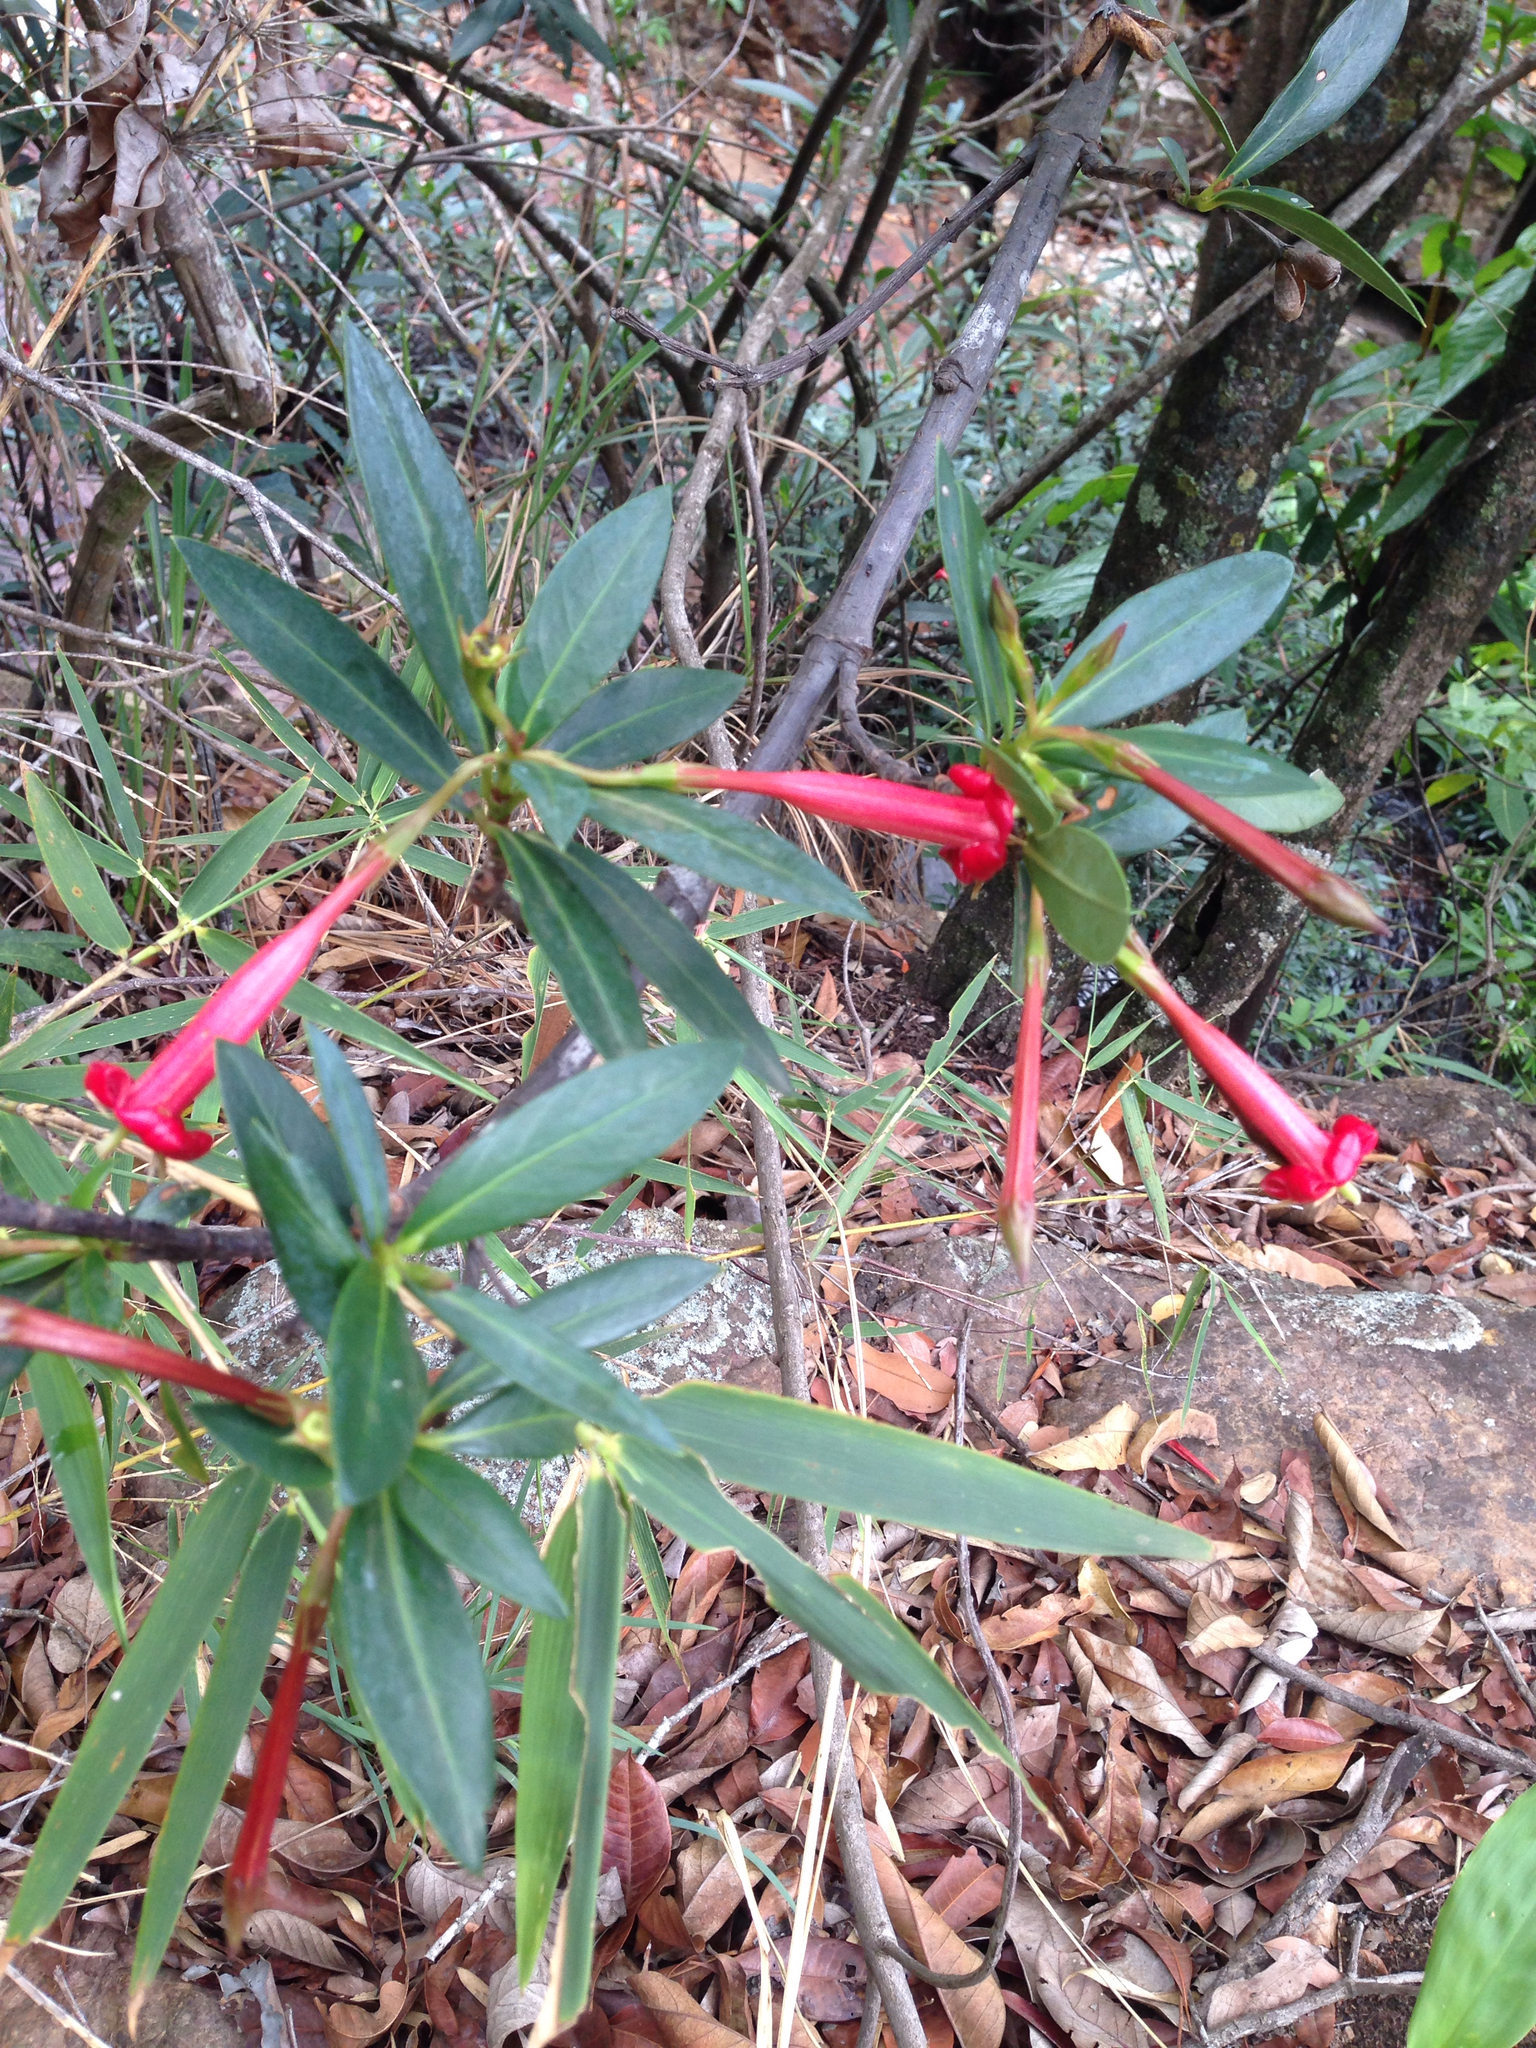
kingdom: Plantae
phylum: Tracheophyta
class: Magnoliopsida
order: Gentianales
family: Rubiaceae
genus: Augusta
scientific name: Augusta longifolia
